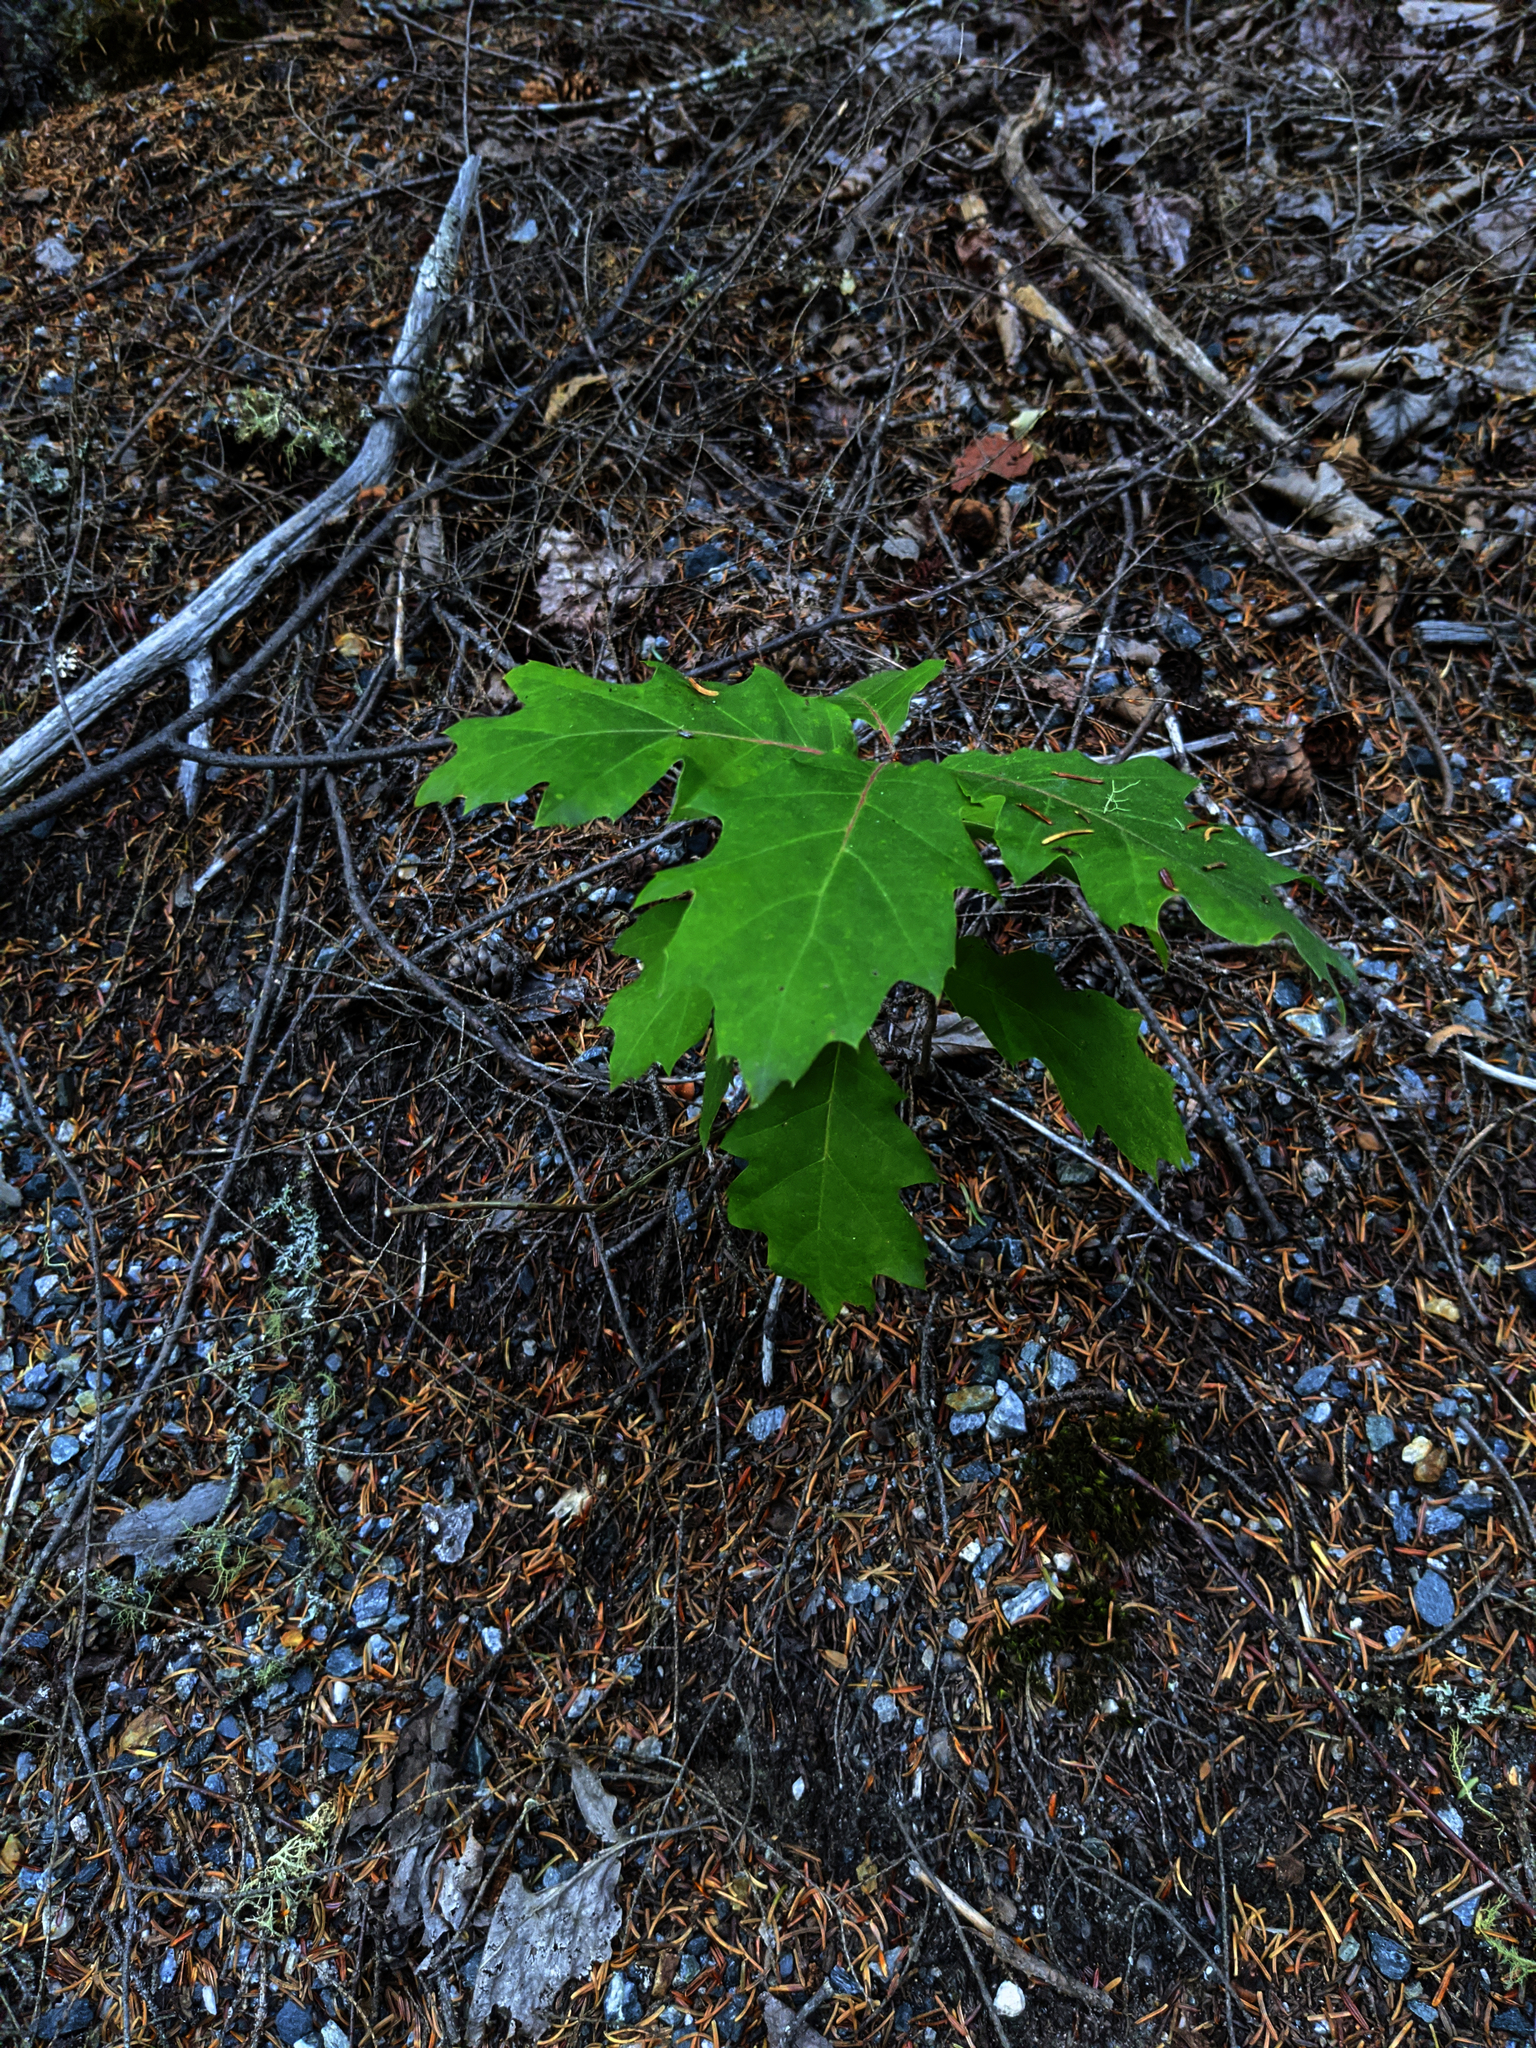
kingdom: Plantae
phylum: Tracheophyta
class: Magnoliopsida
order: Fagales
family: Fagaceae
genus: Quercus
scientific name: Quercus rubra
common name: Red oak
